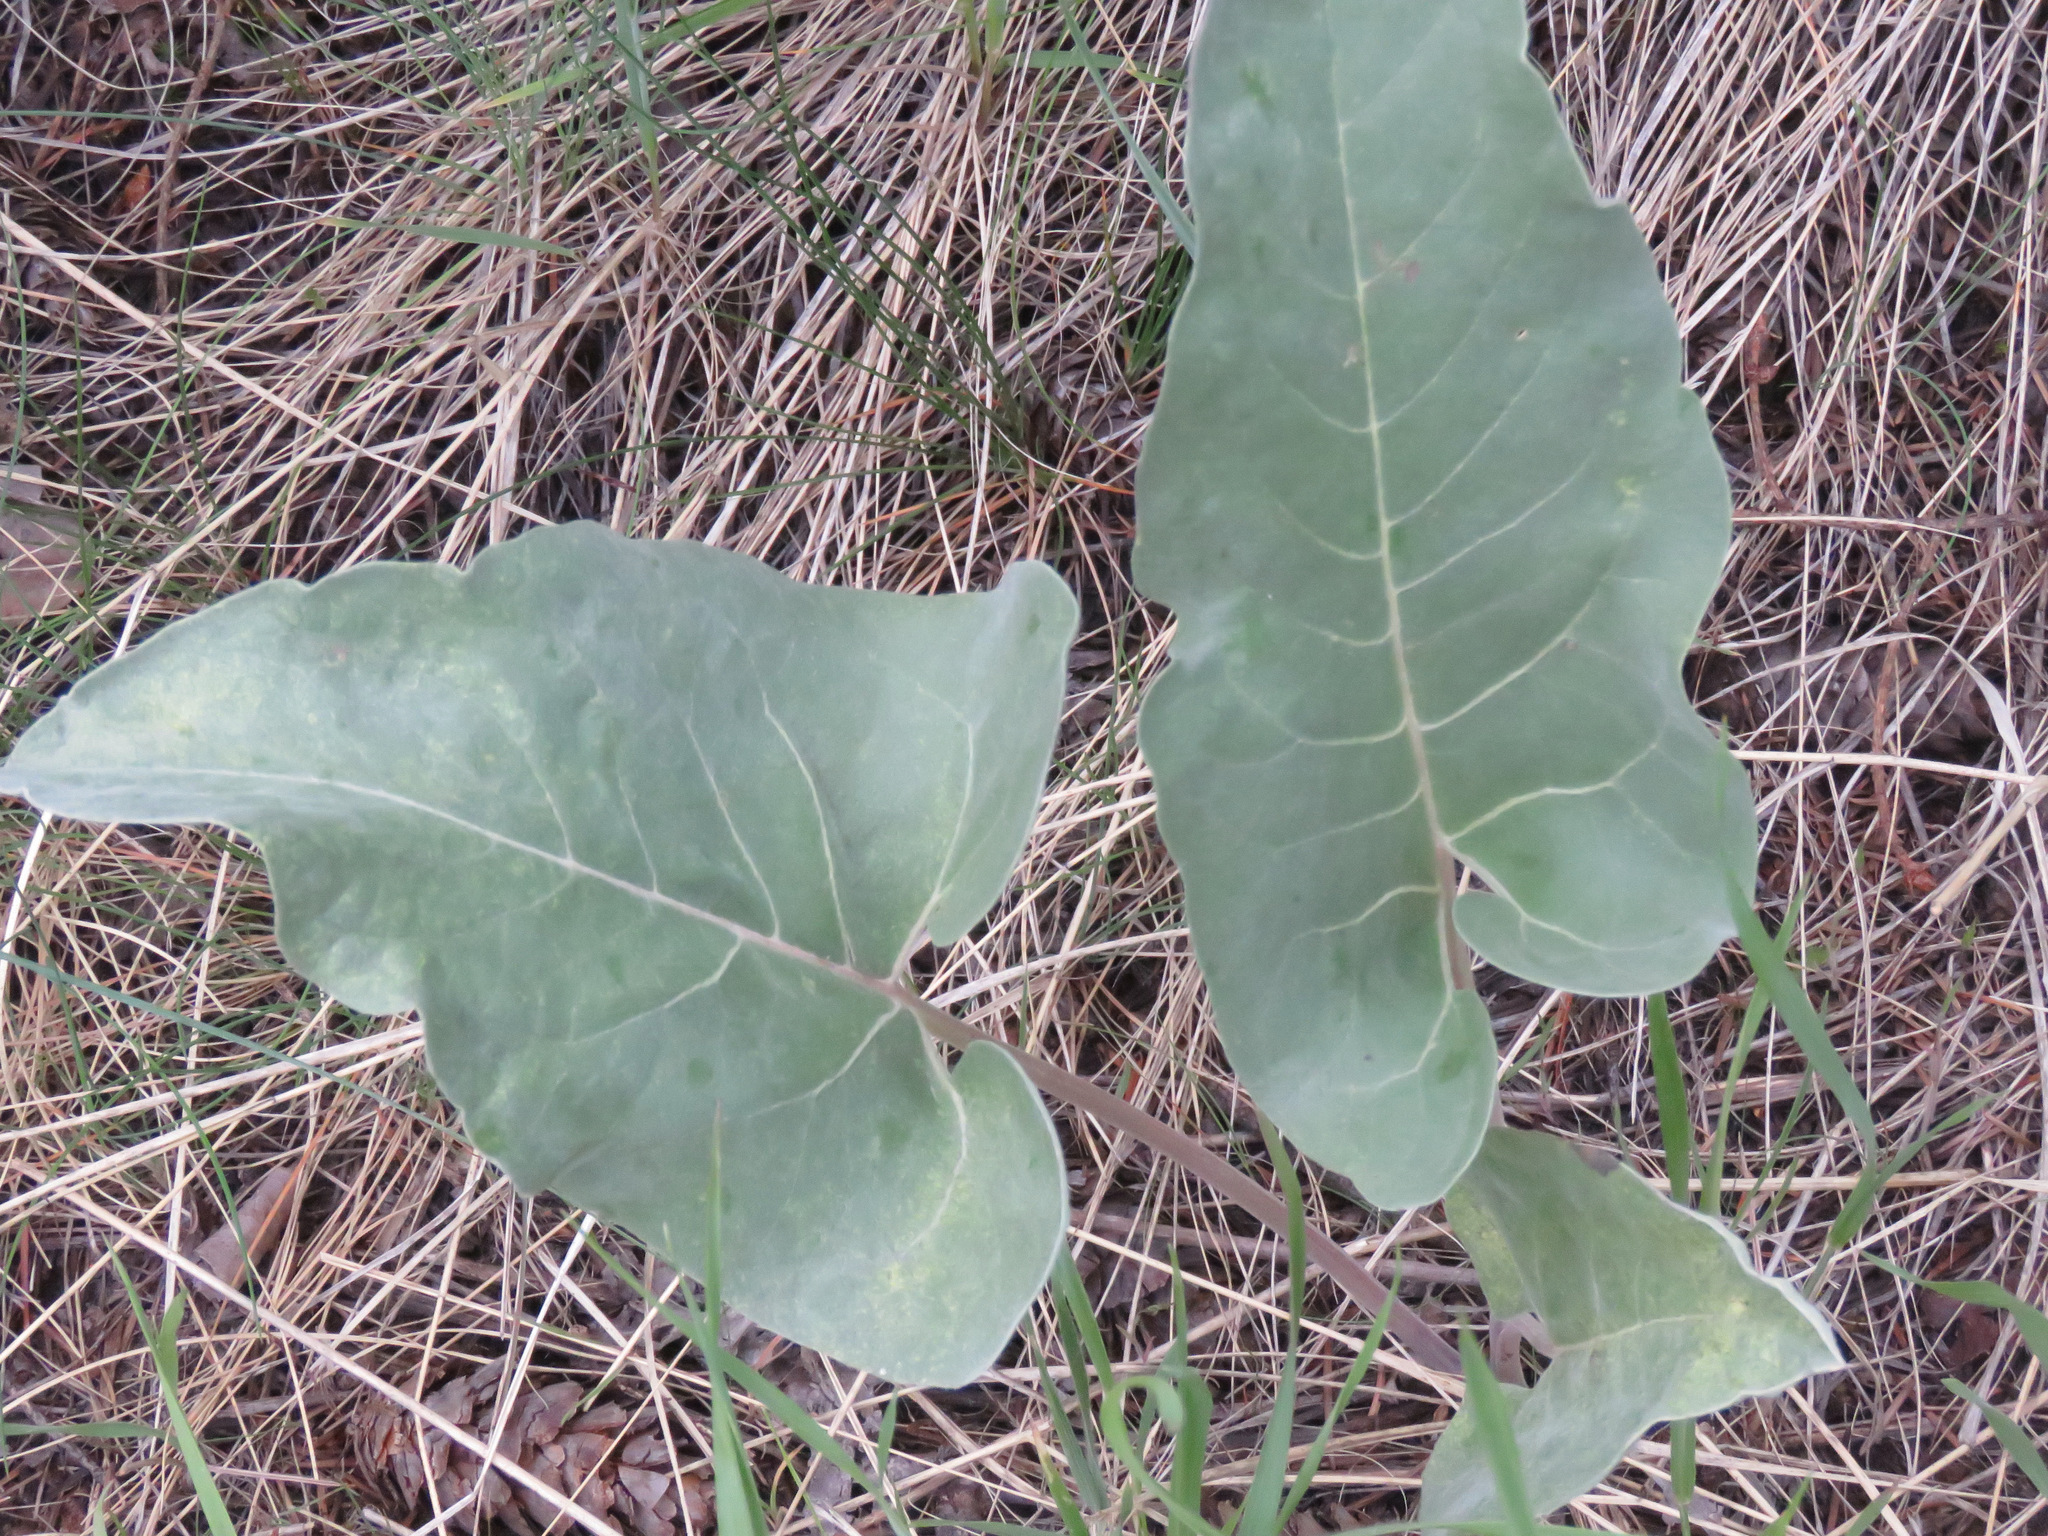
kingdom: Plantae
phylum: Tracheophyta
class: Magnoliopsida
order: Asterales
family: Asteraceae
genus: Wyethia
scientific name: Wyethia sagittata
